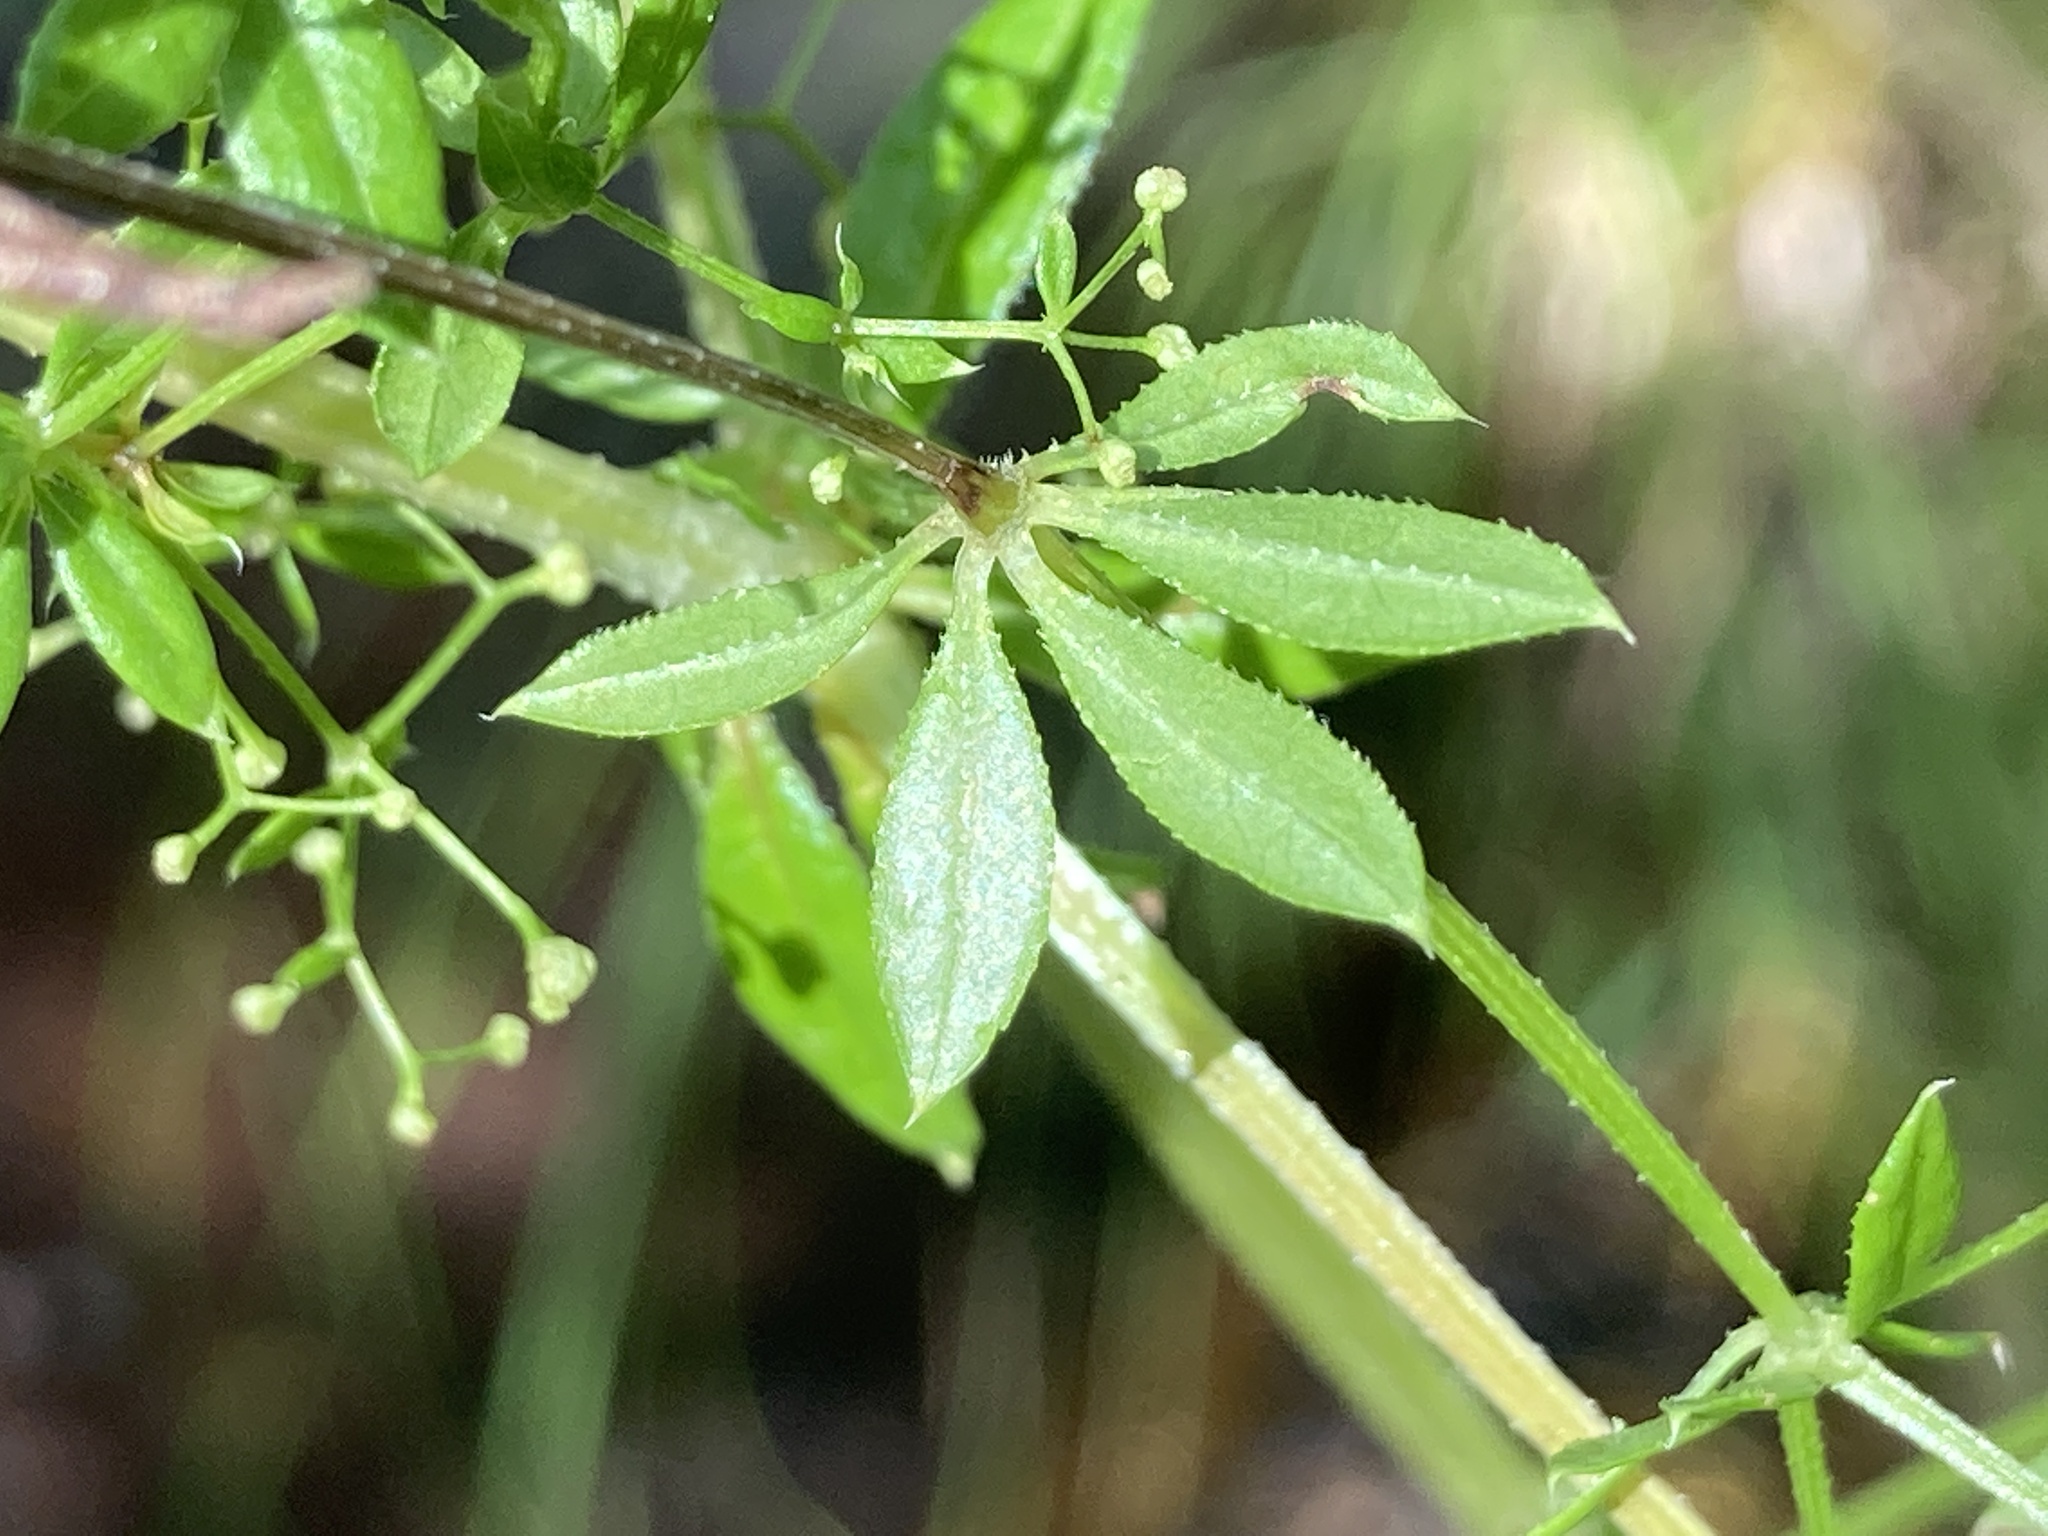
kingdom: Plantae
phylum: Tracheophyta
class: Magnoliopsida
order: Gentianales
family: Rubiaceae
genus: Galium
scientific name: Galium asprellum
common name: Rough bedstraw
